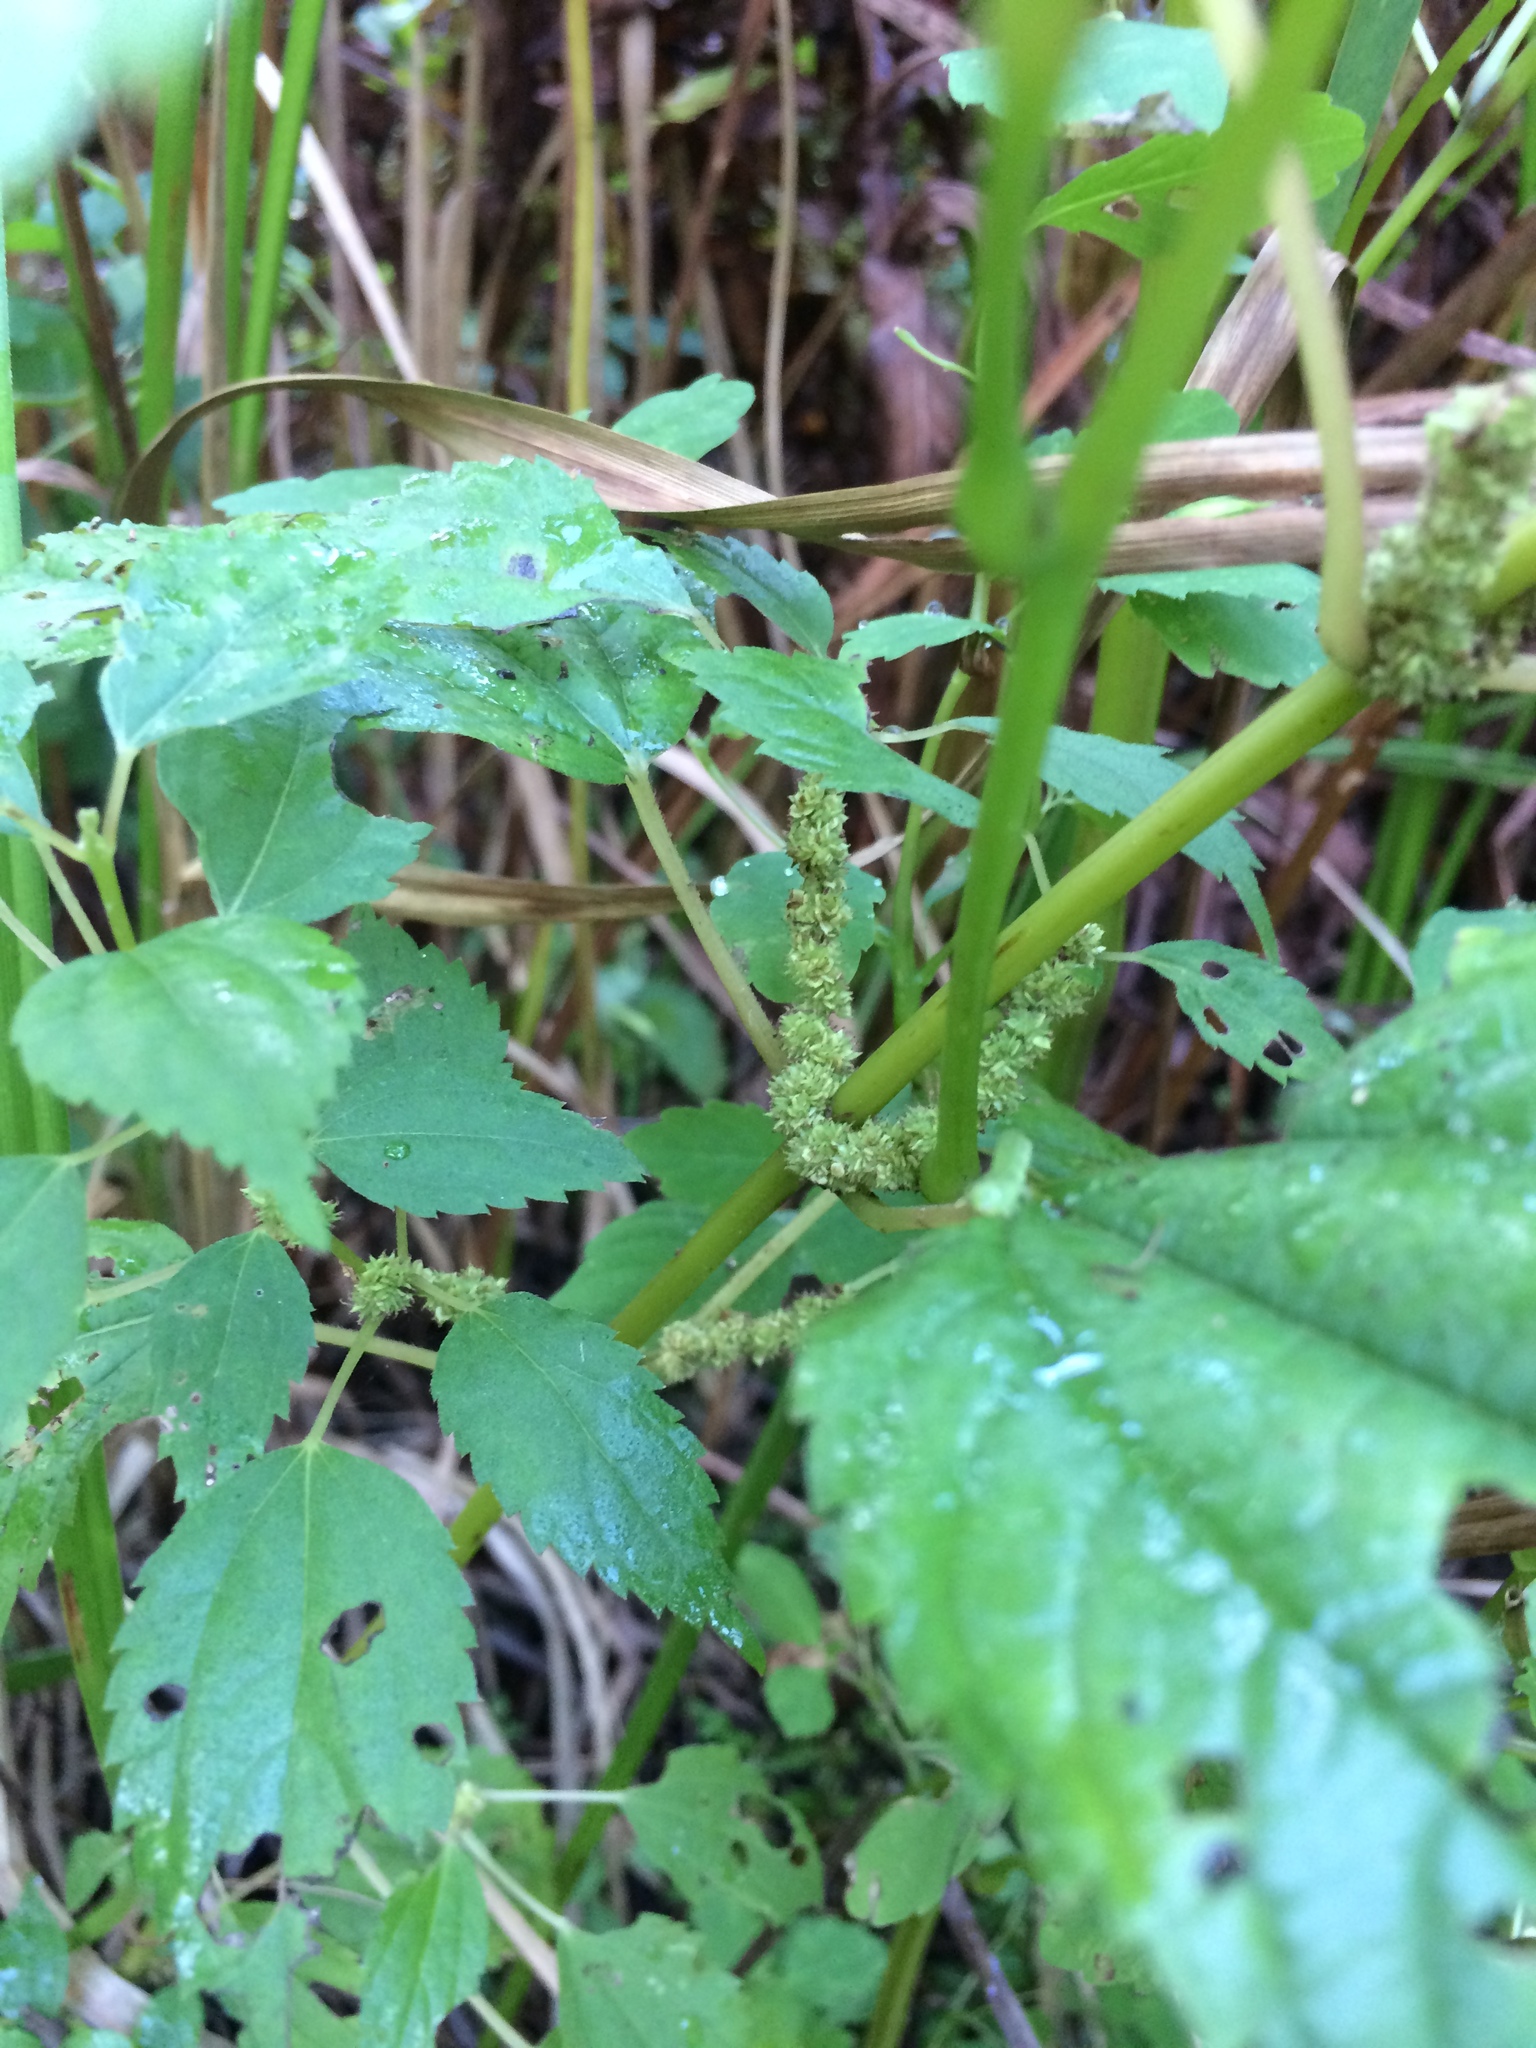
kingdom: Plantae
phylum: Tracheophyta
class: Magnoliopsida
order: Rosales
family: Urticaceae
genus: Boehmeria
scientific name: Boehmeria cylindrica
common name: Bog-hemp
